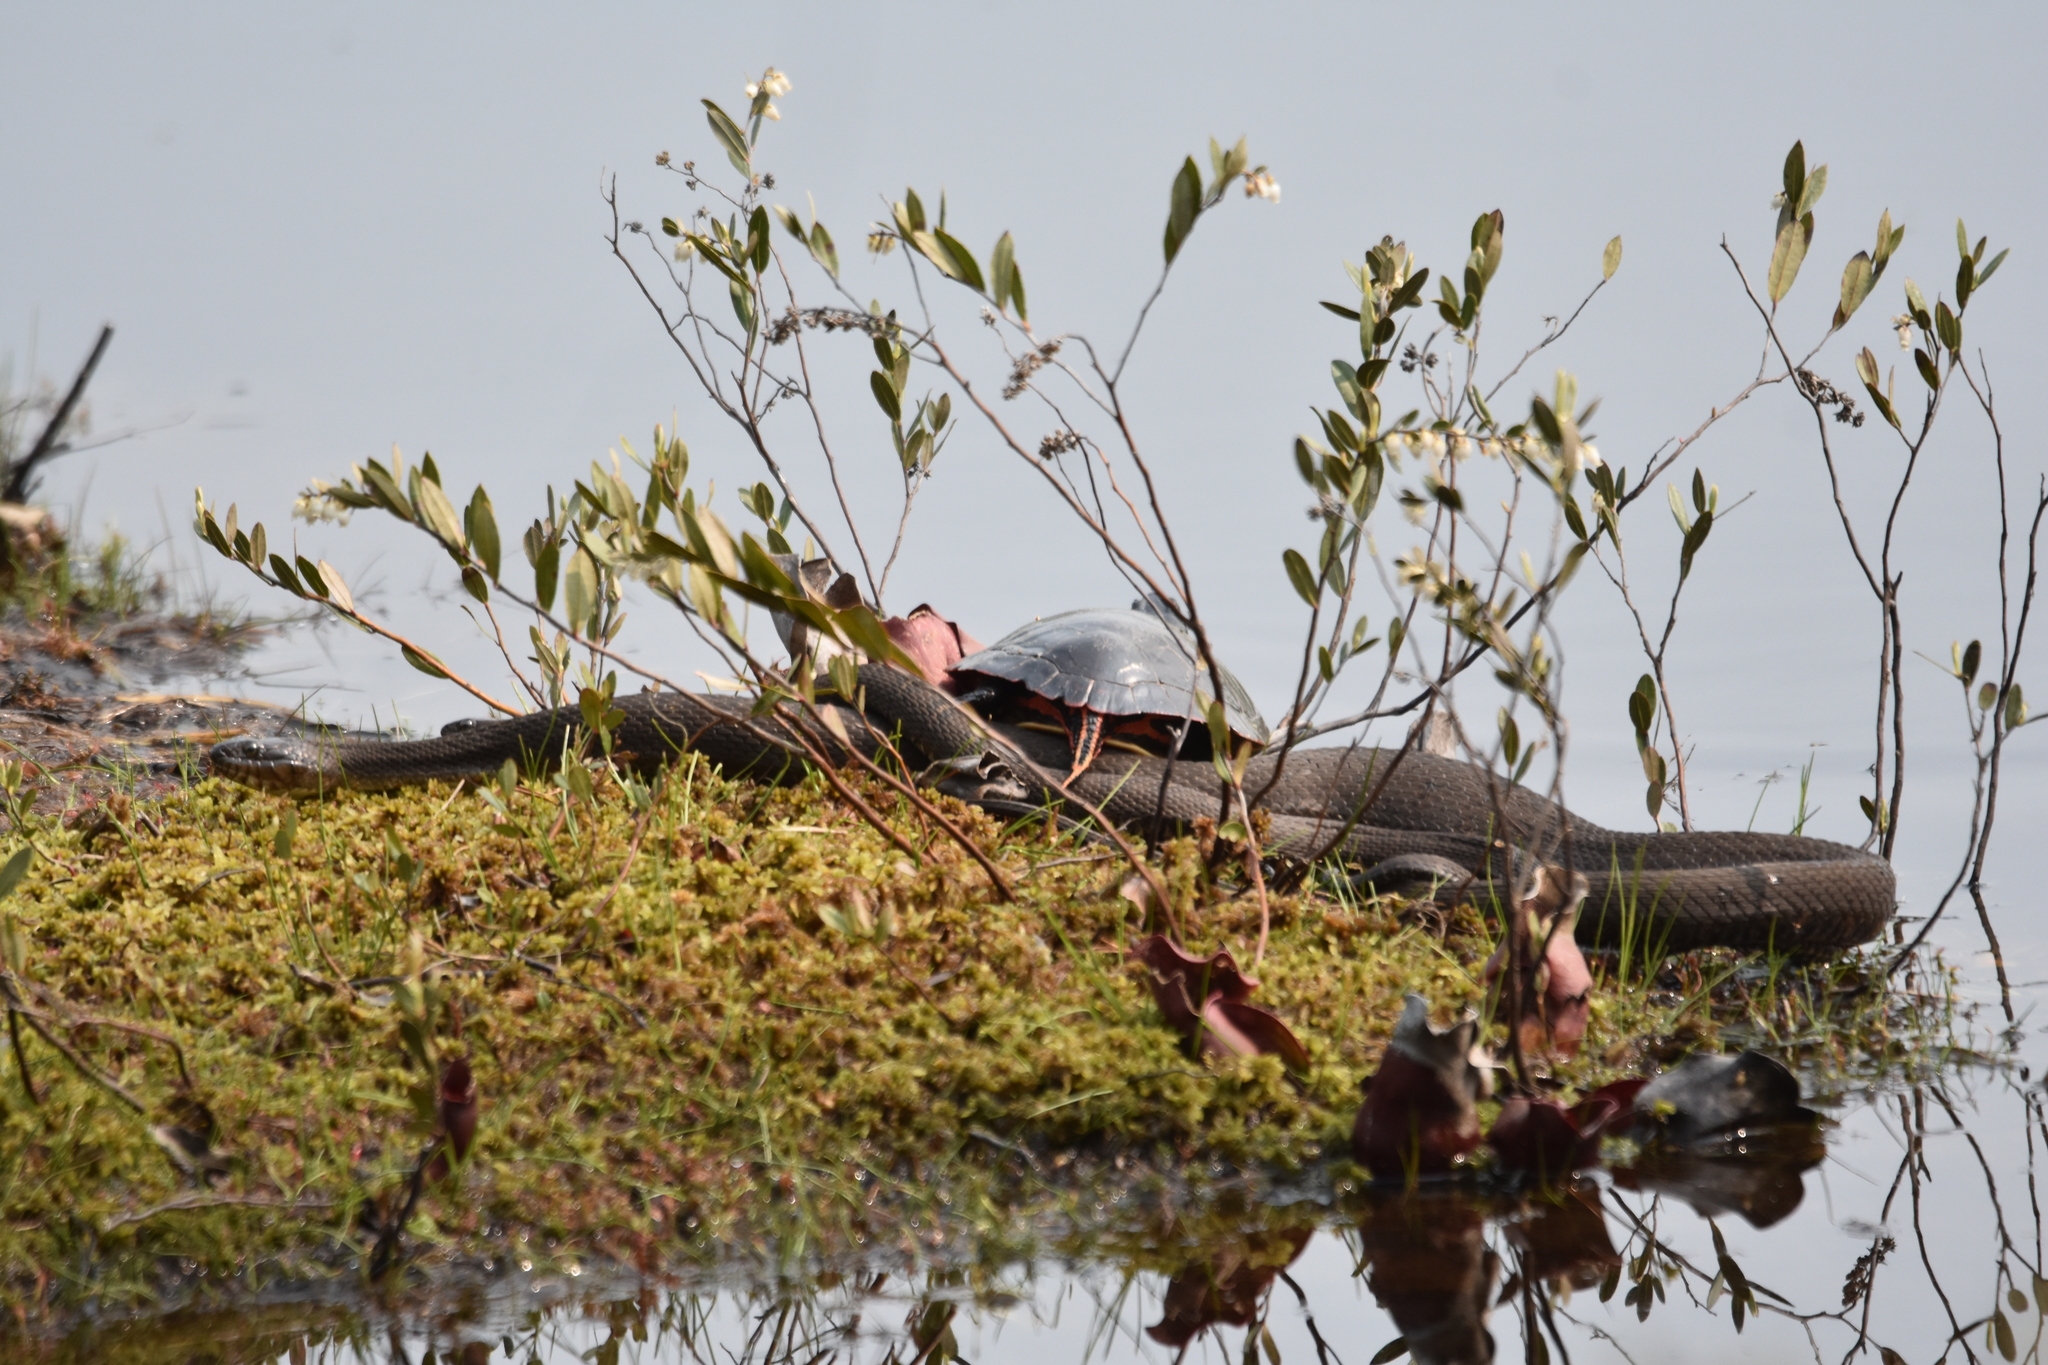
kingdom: Animalia
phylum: Chordata
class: Squamata
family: Colubridae
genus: Nerodia
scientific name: Nerodia sipedon
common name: Northern water snake
